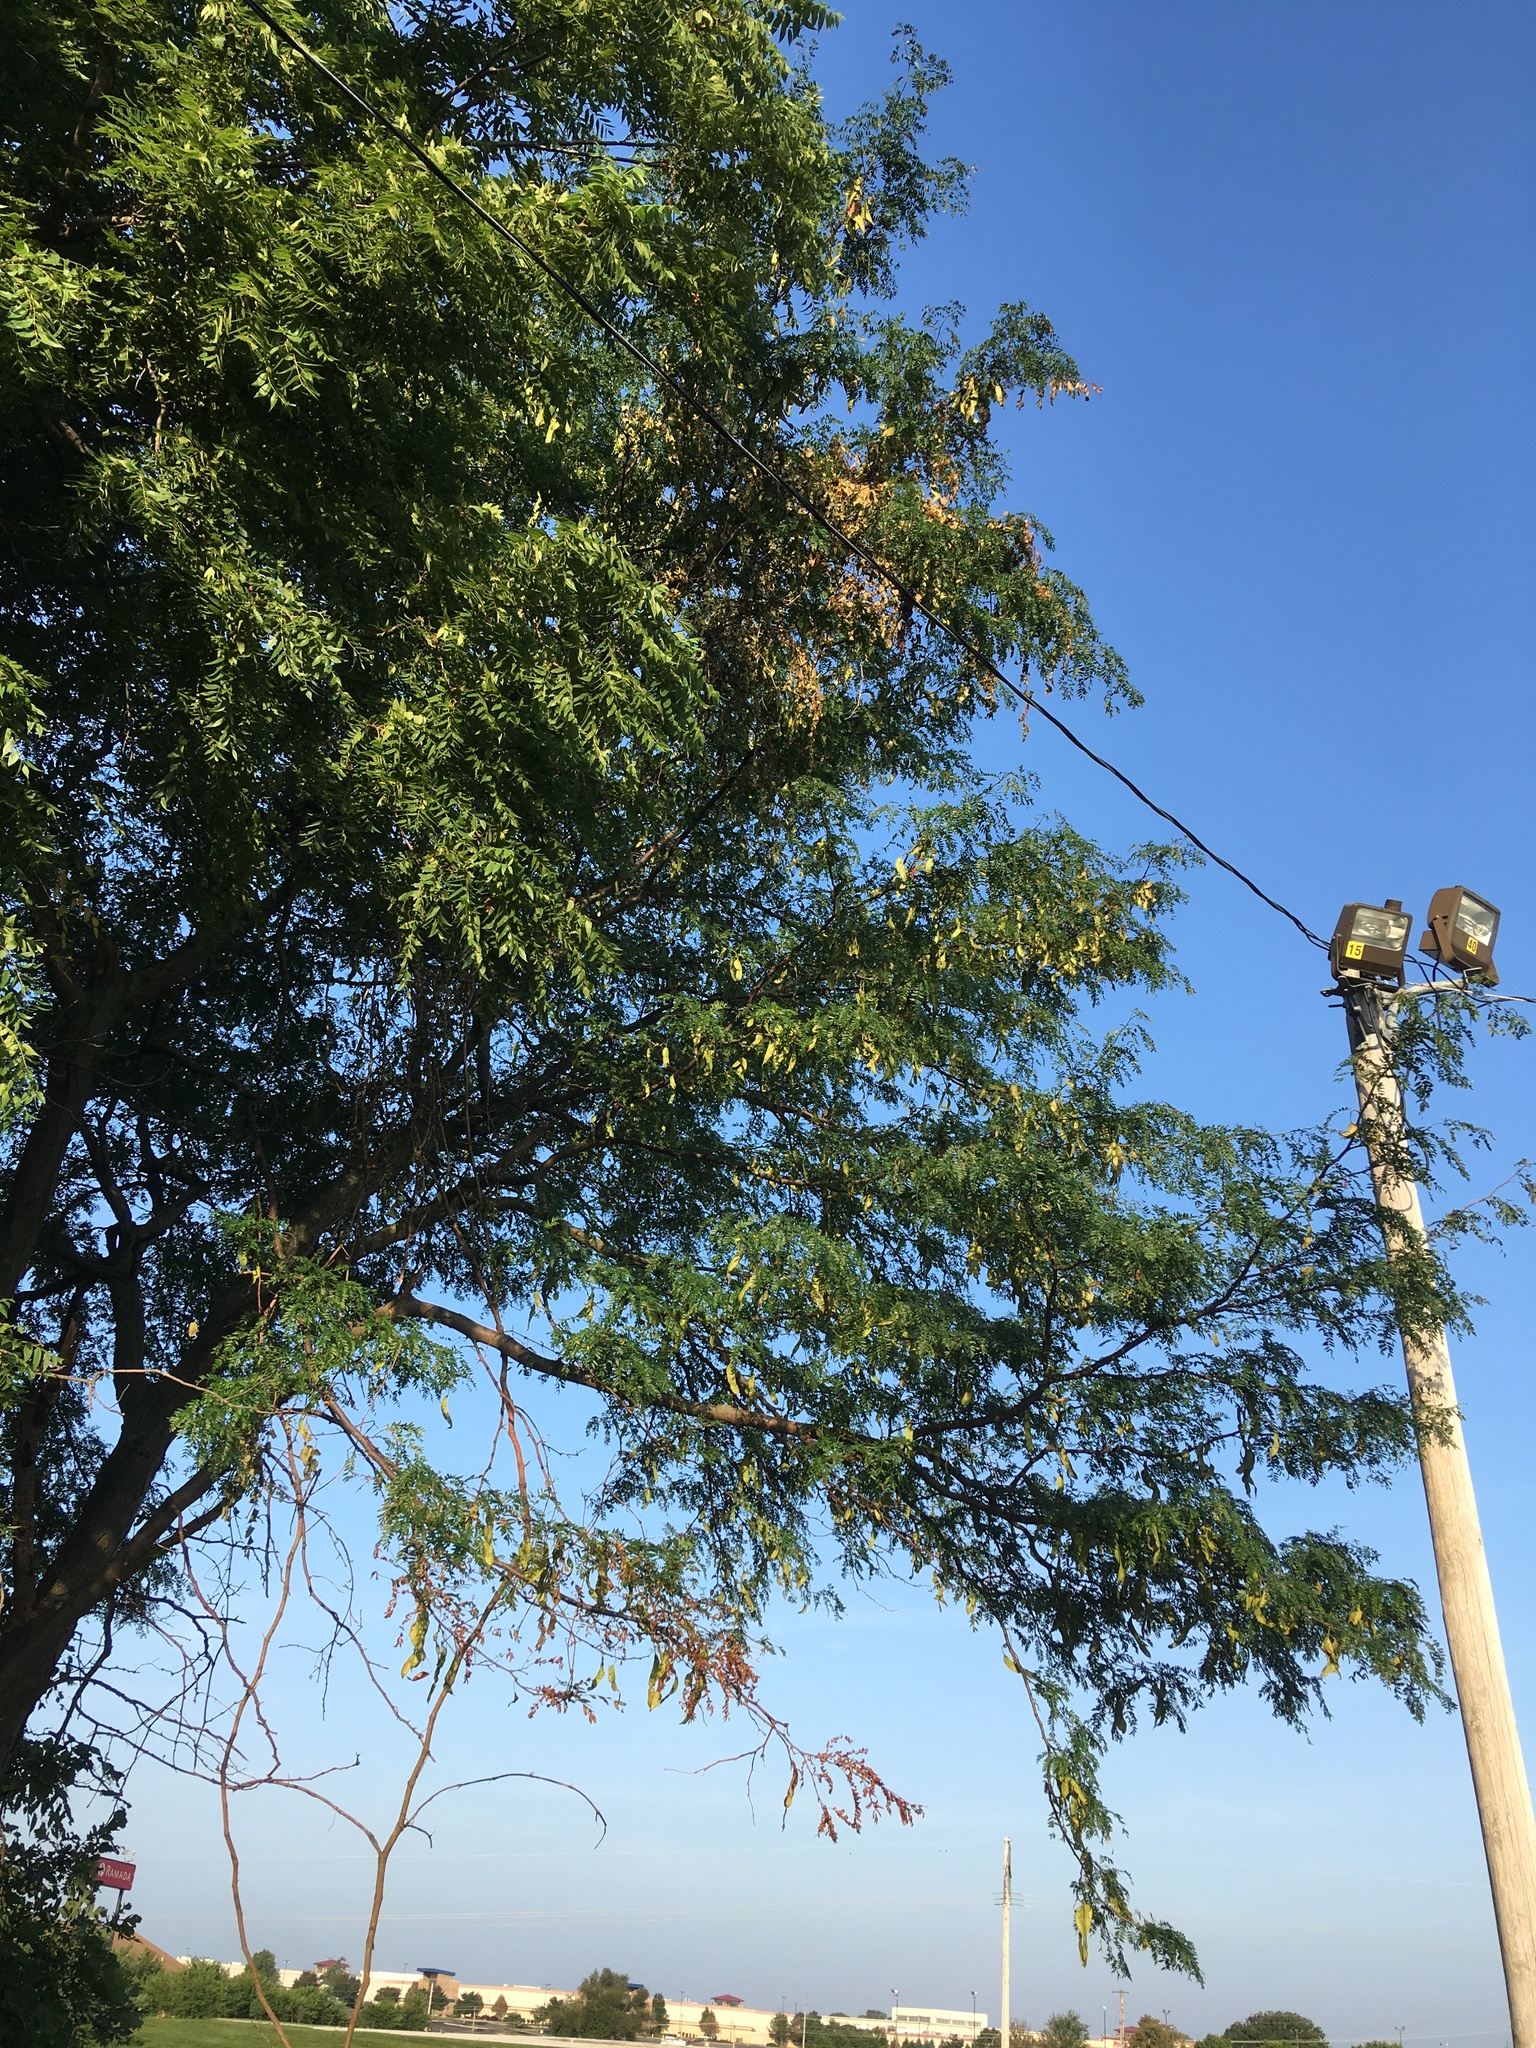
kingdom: Plantae
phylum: Tracheophyta
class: Magnoliopsida
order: Fabales
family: Fabaceae
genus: Gleditsia
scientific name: Gleditsia triacanthos
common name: Common honeylocust
